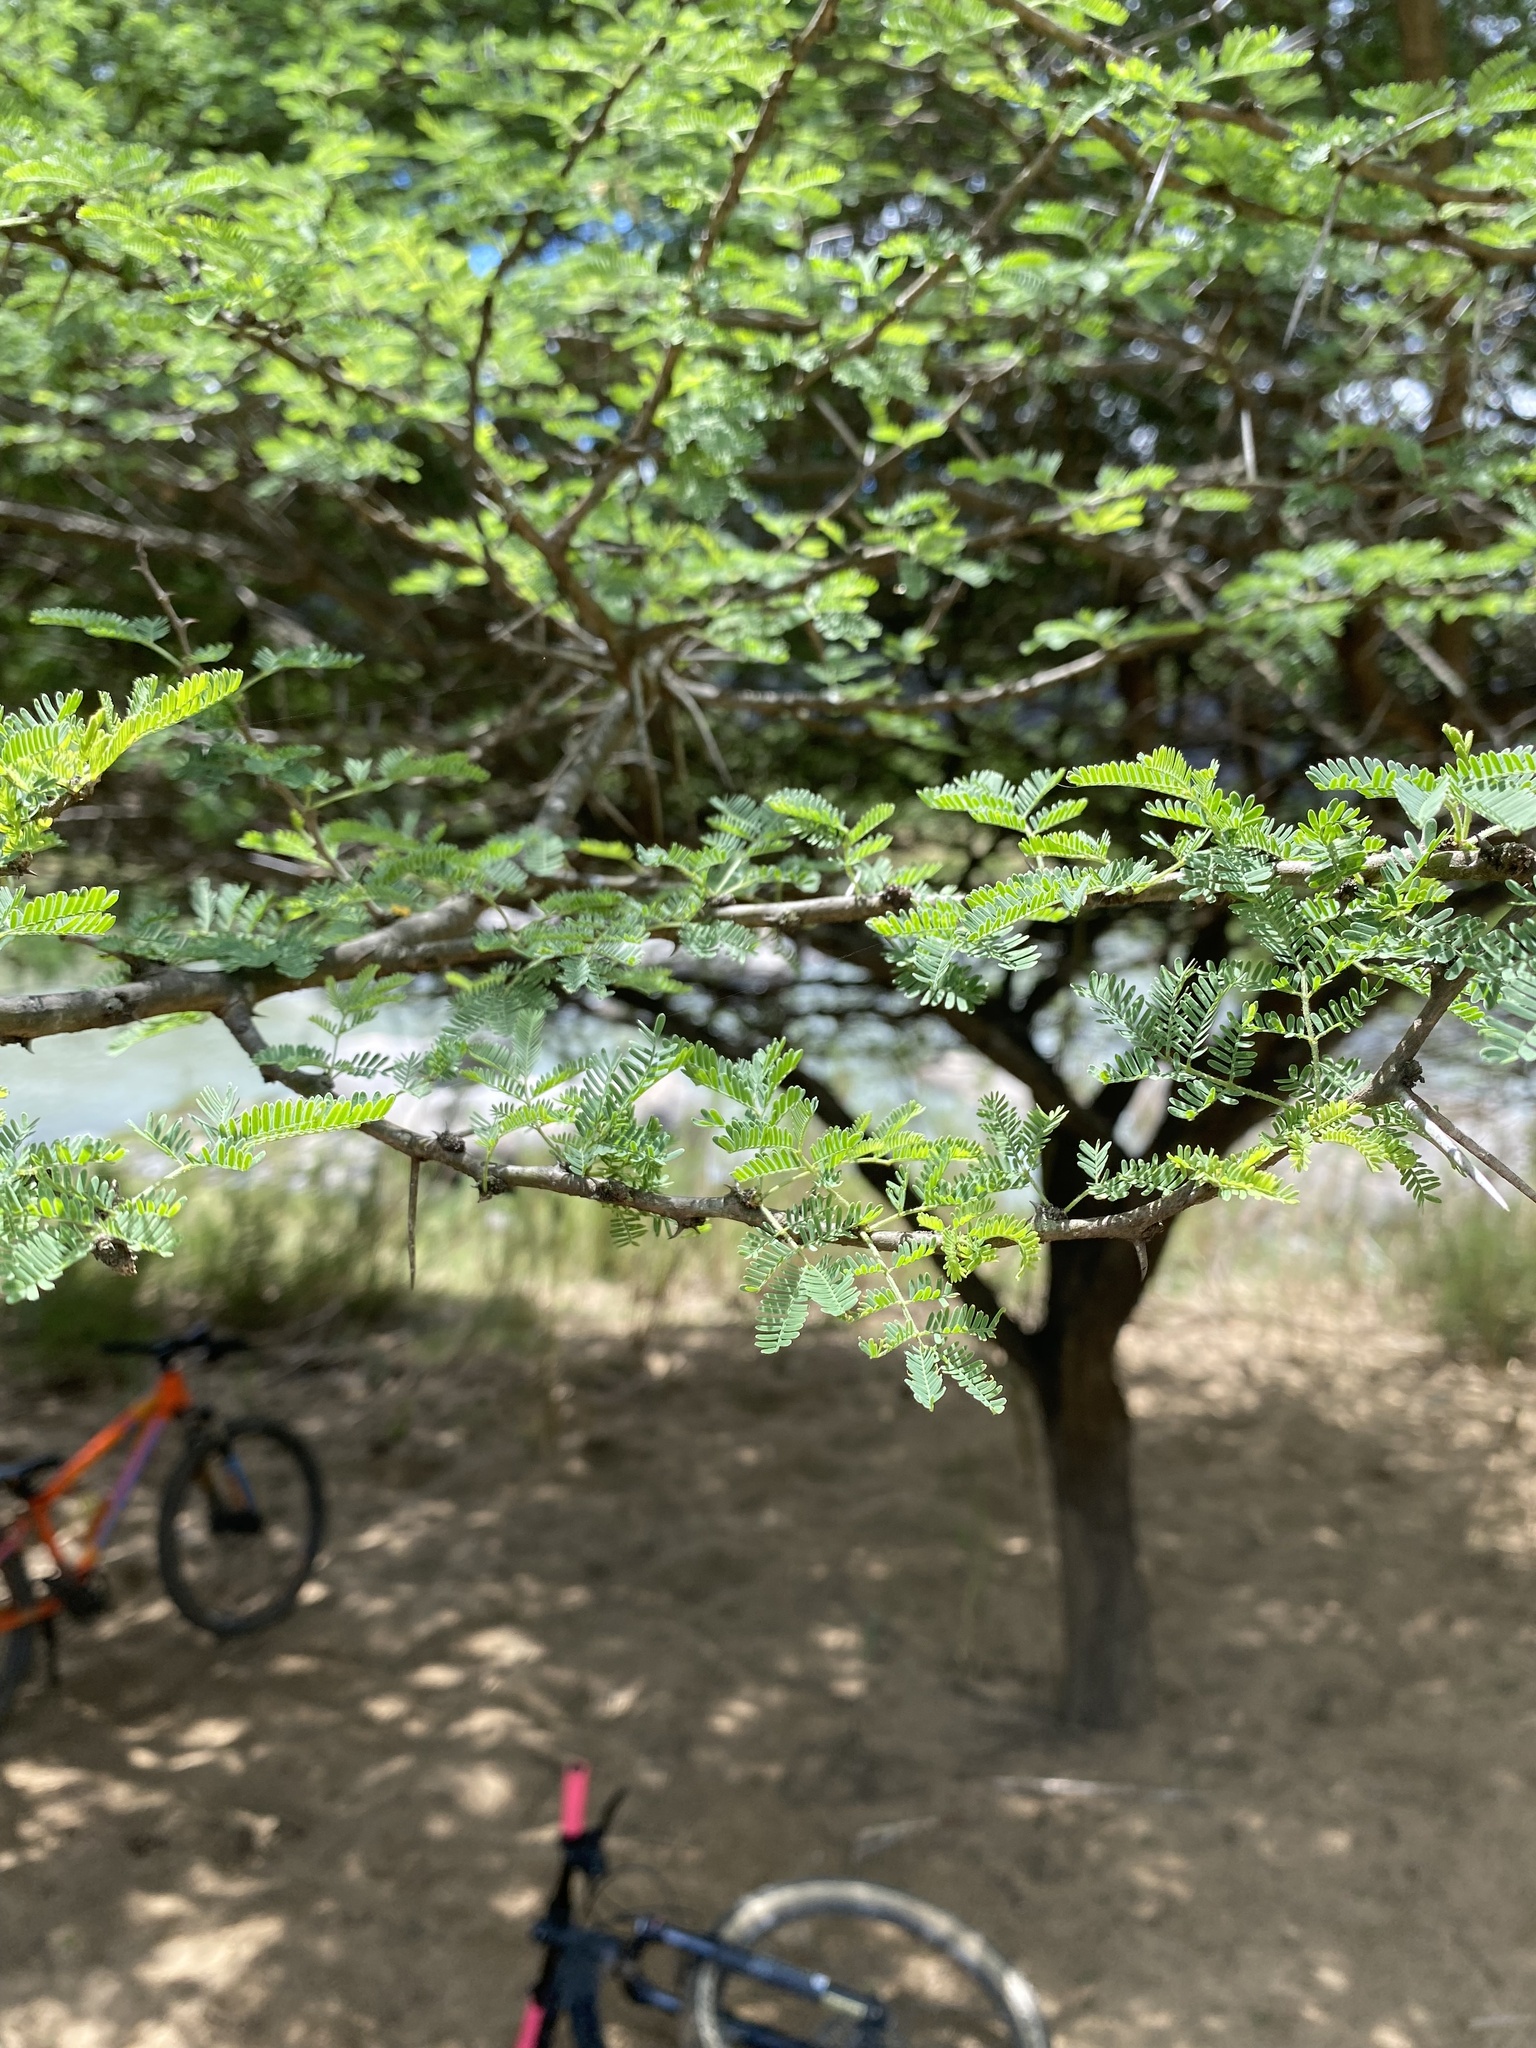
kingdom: Plantae
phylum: Tracheophyta
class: Magnoliopsida
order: Fabales
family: Fabaceae
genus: Vachellia
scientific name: Vachellia tortilis
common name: Umbrella thorn acacia
